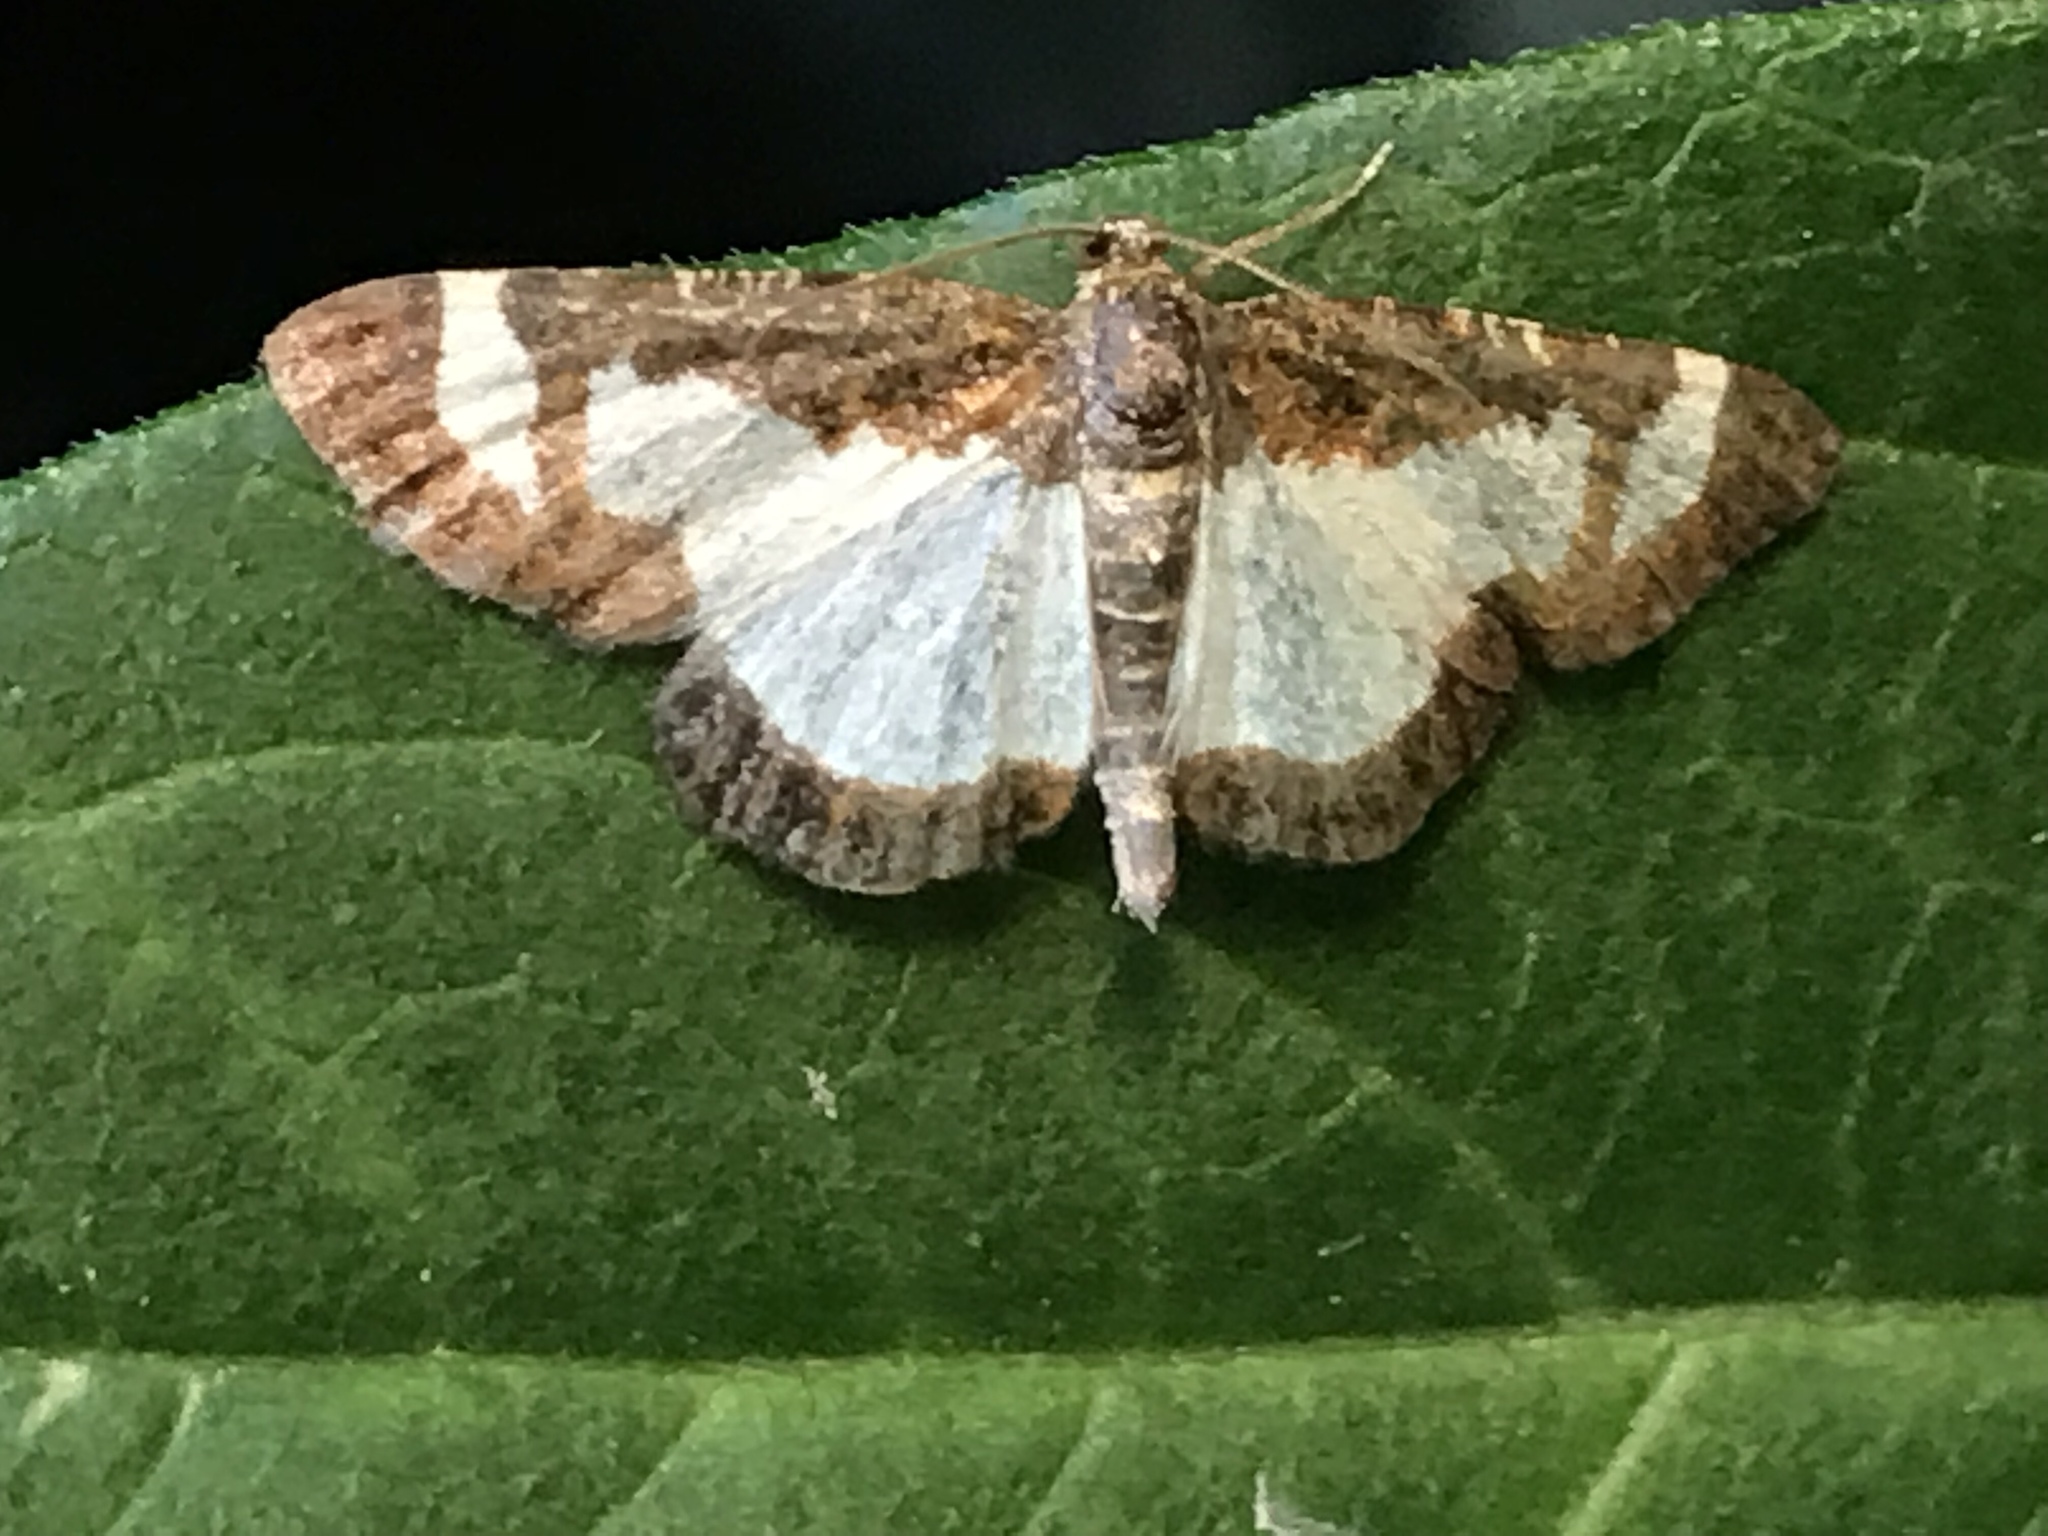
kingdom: Animalia
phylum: Arthropoda
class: Insecta
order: Lepidoptera
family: Geometridae
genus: Heliomata
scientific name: Heliomata cycladata
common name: Common spring moth
